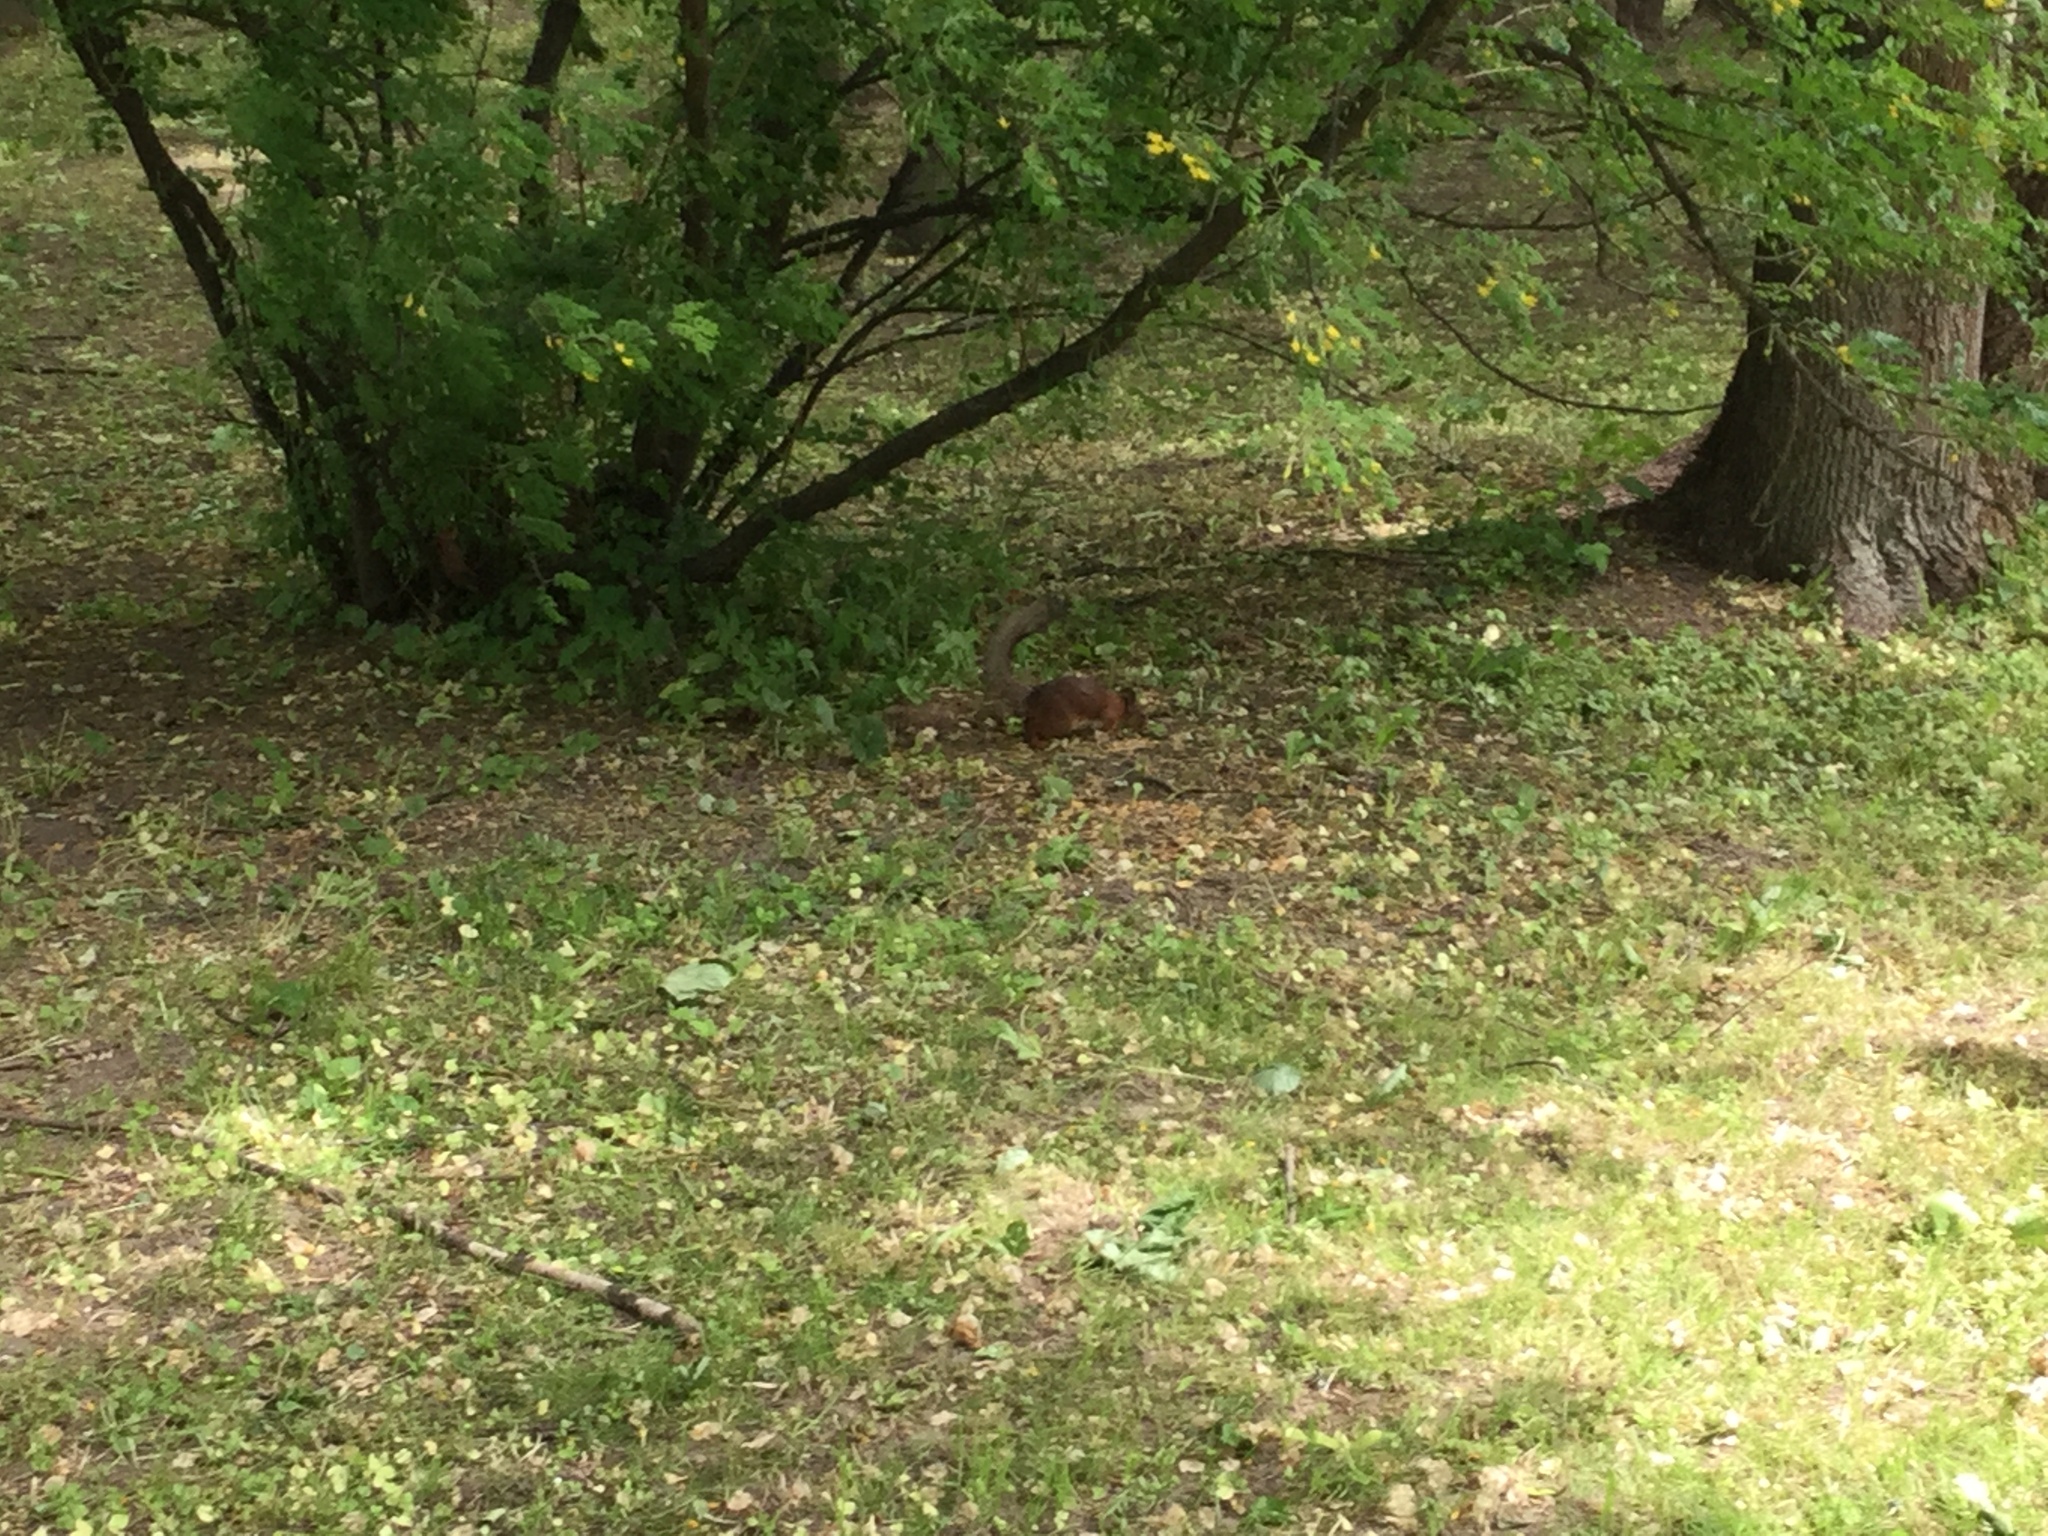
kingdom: Animalia
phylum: Chordata
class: Mammalia
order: Rodentia
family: Sciuridae
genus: Sciurus
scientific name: Sciurus vulgaris
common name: Eurasian red squirrel
